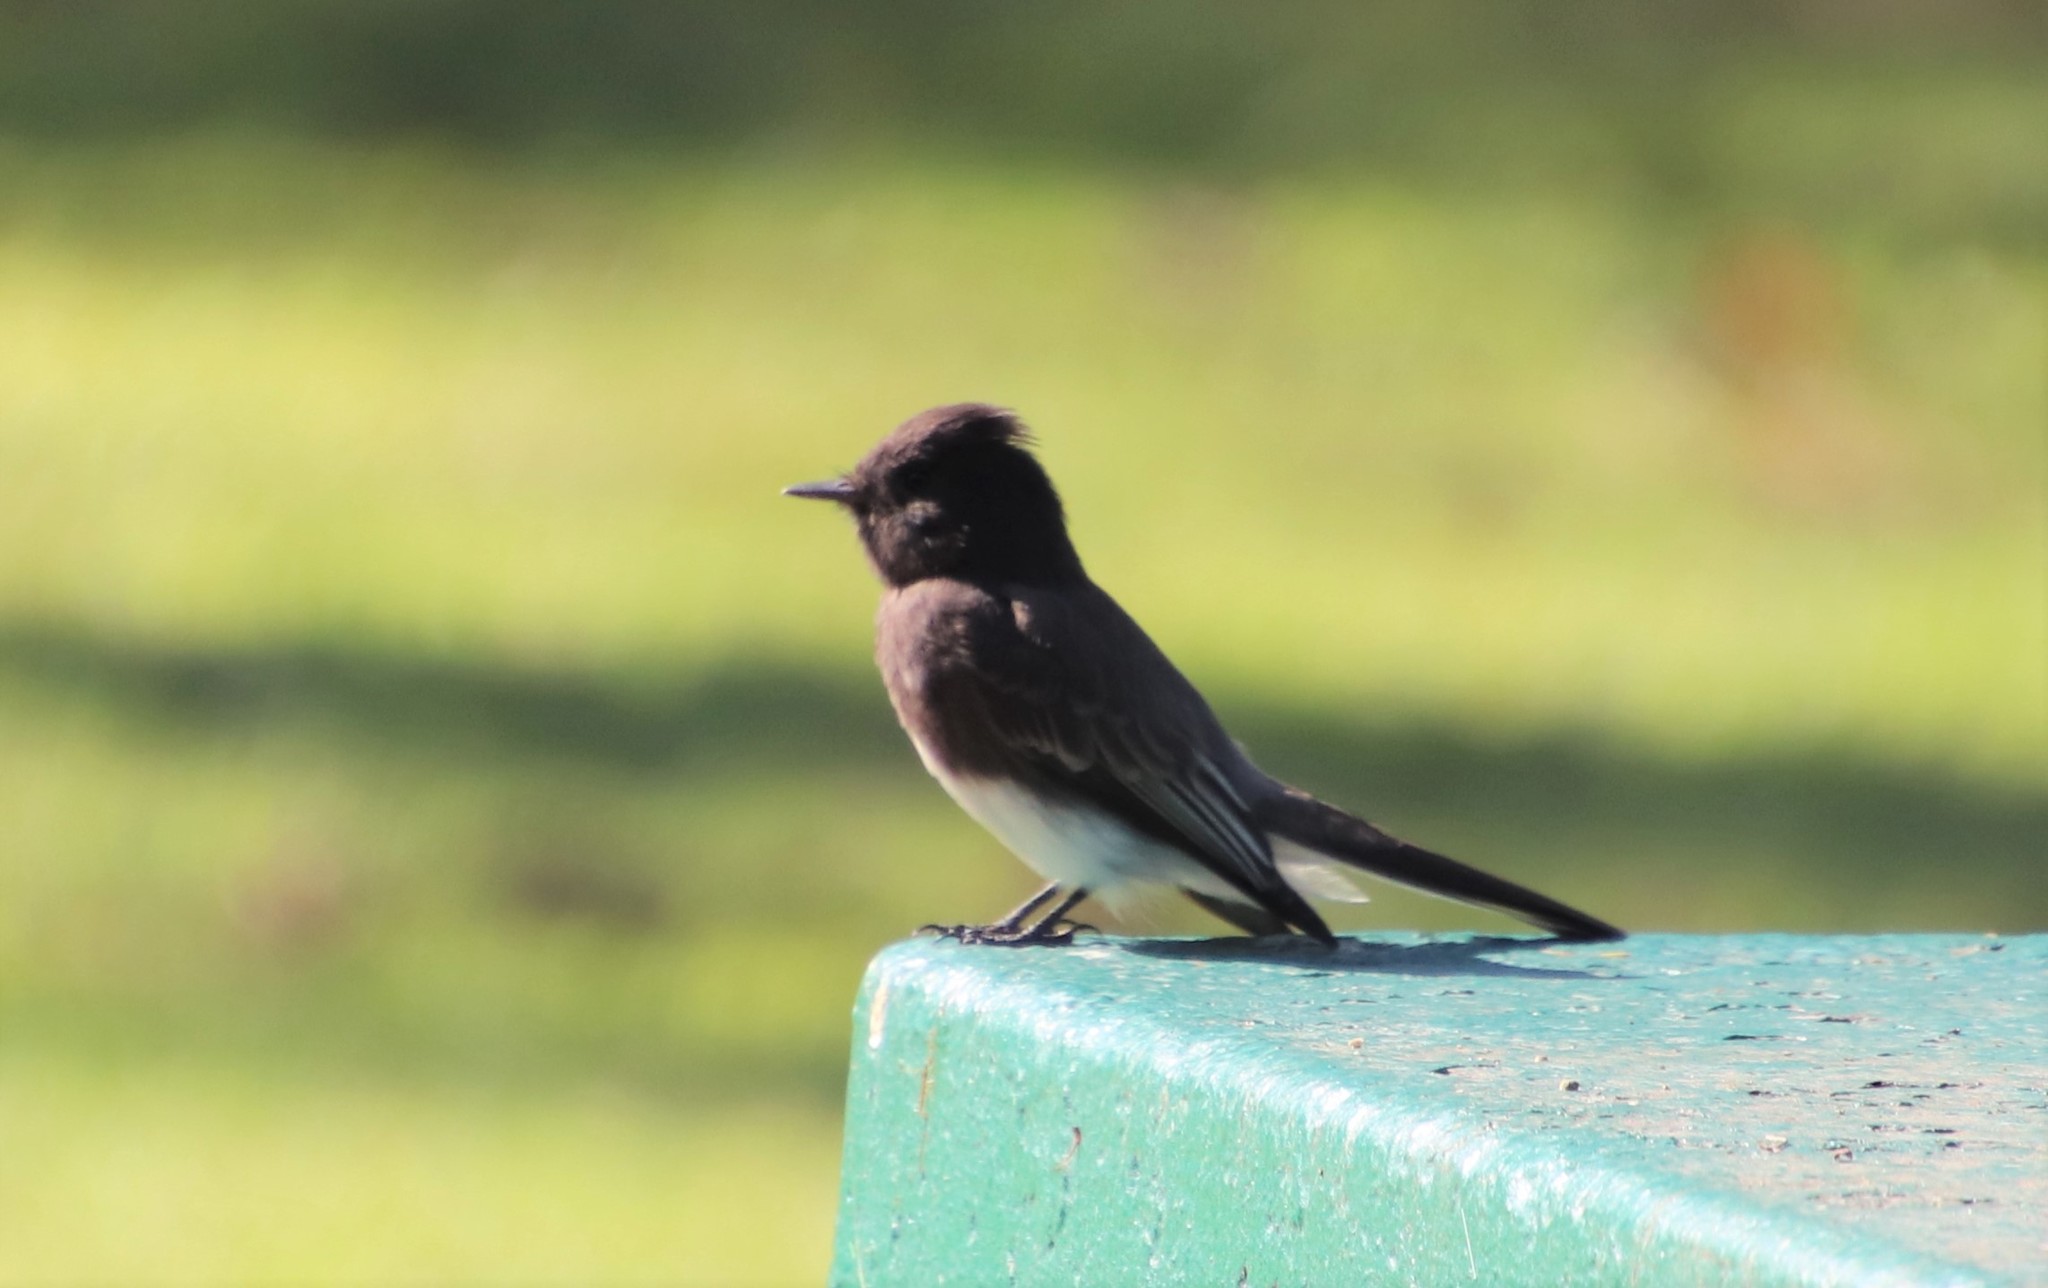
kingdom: Animalia
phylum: Chordata
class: Aves
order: Passeriformes
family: Tyrannidae
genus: Sayornis
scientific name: Sayornis nigricans
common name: Black phoebe
